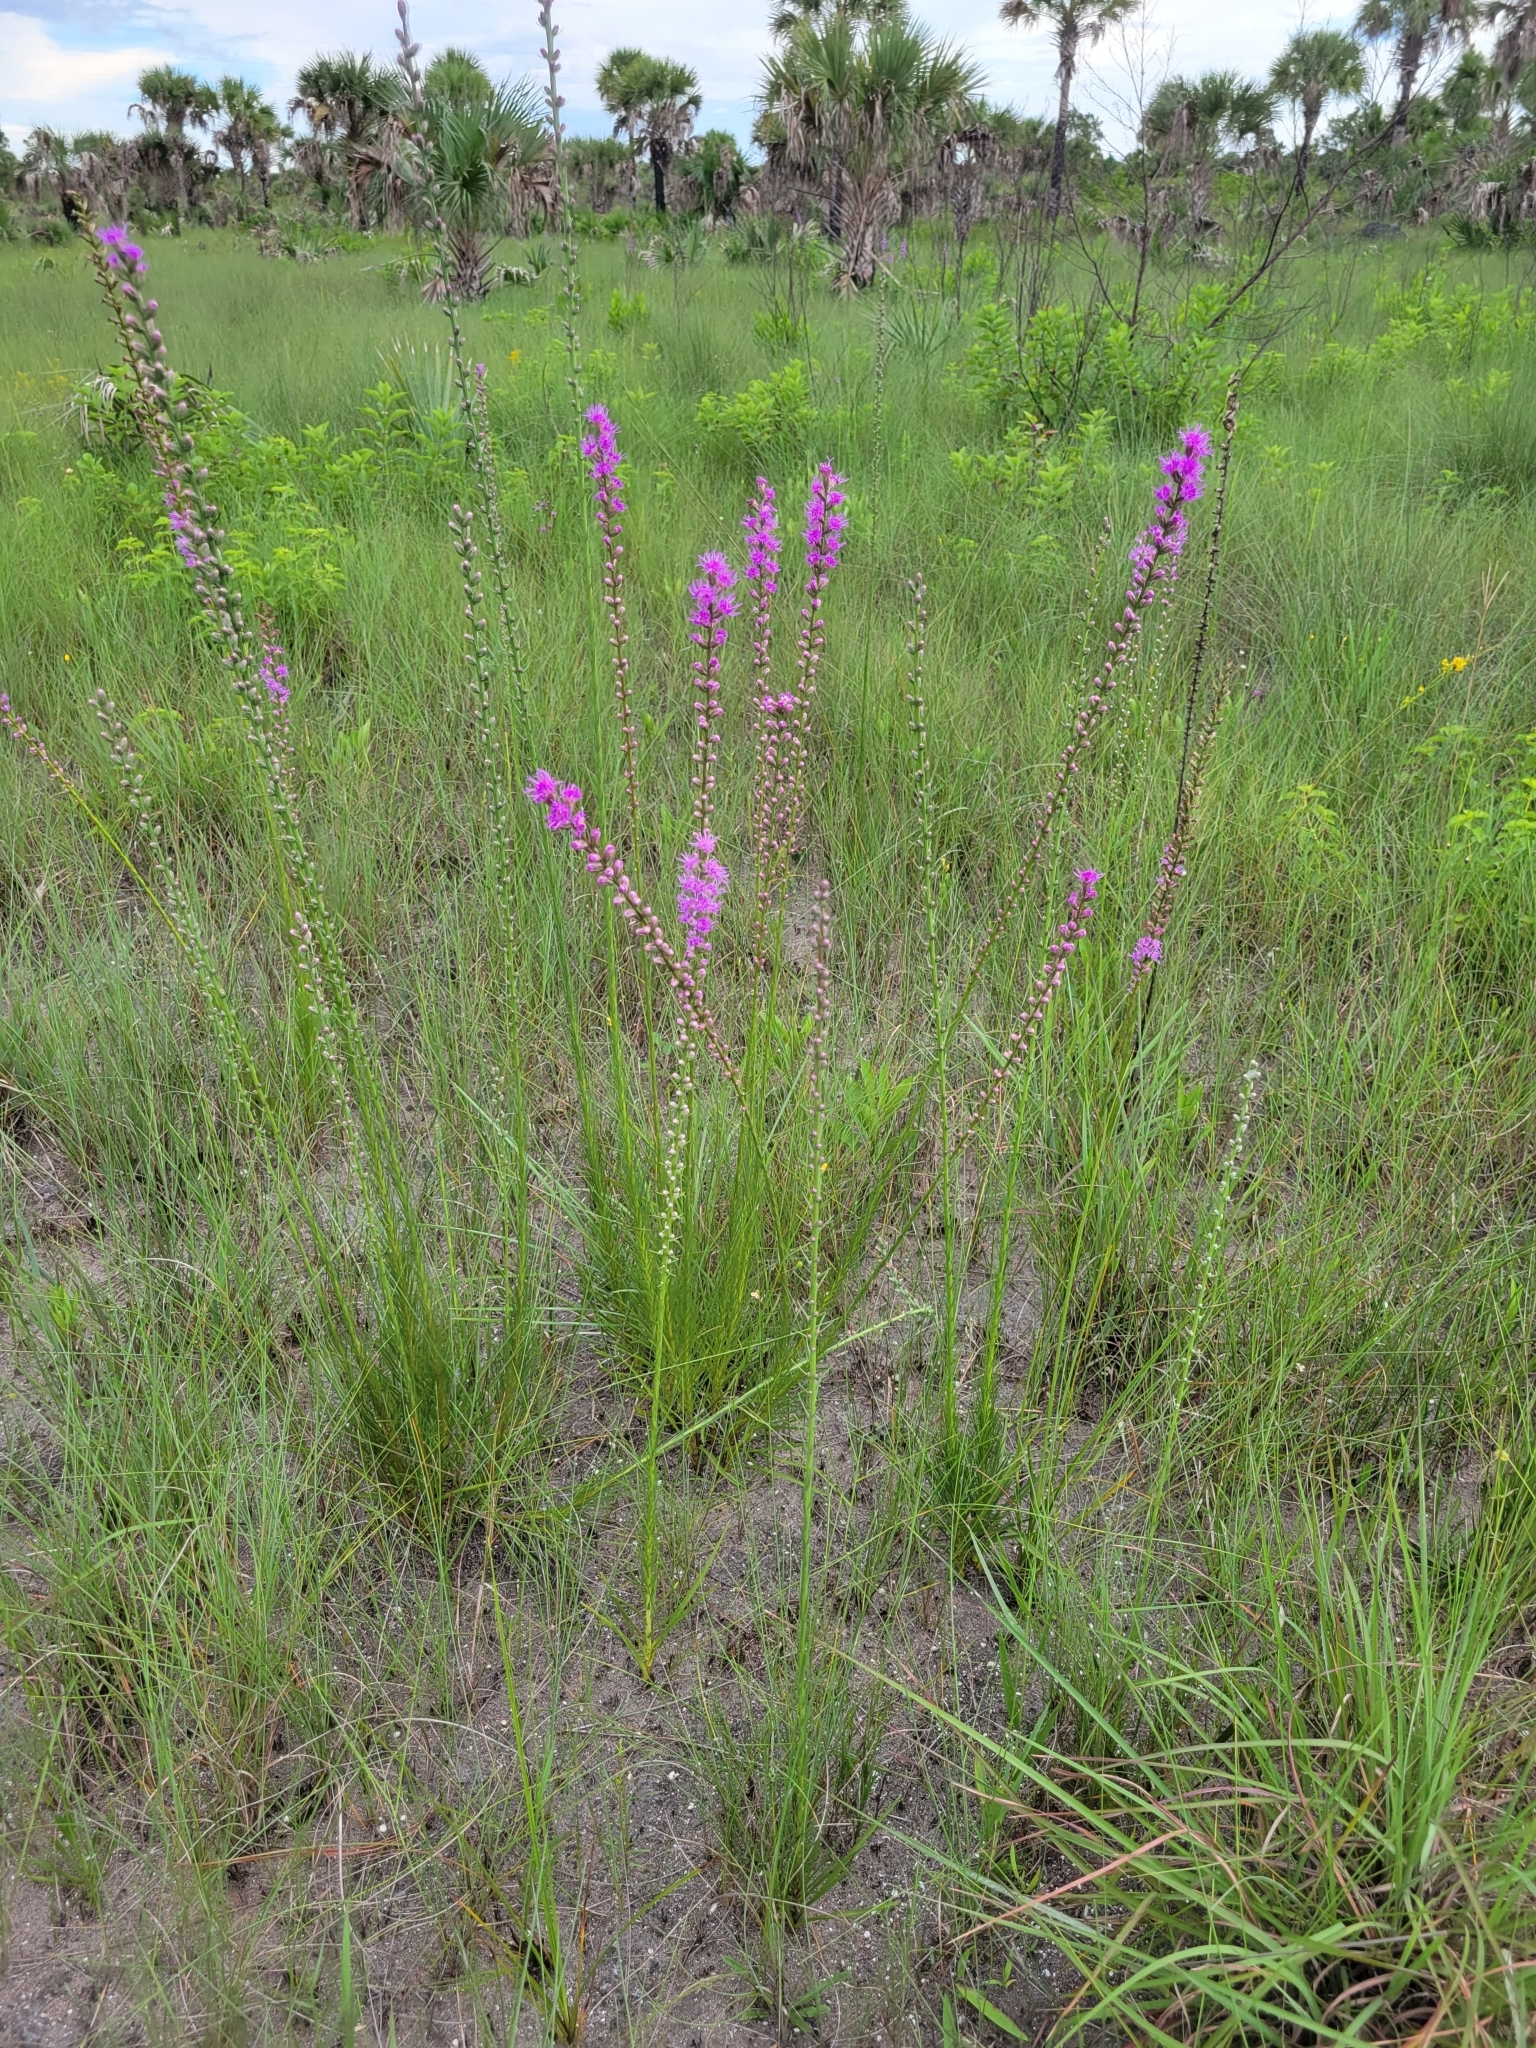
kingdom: Plantae
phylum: Tracheophyta
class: Magnoliopsida
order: Asterales
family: Asteraceae
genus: Liatris
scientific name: Liatris spicata
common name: Florist gayfeather
